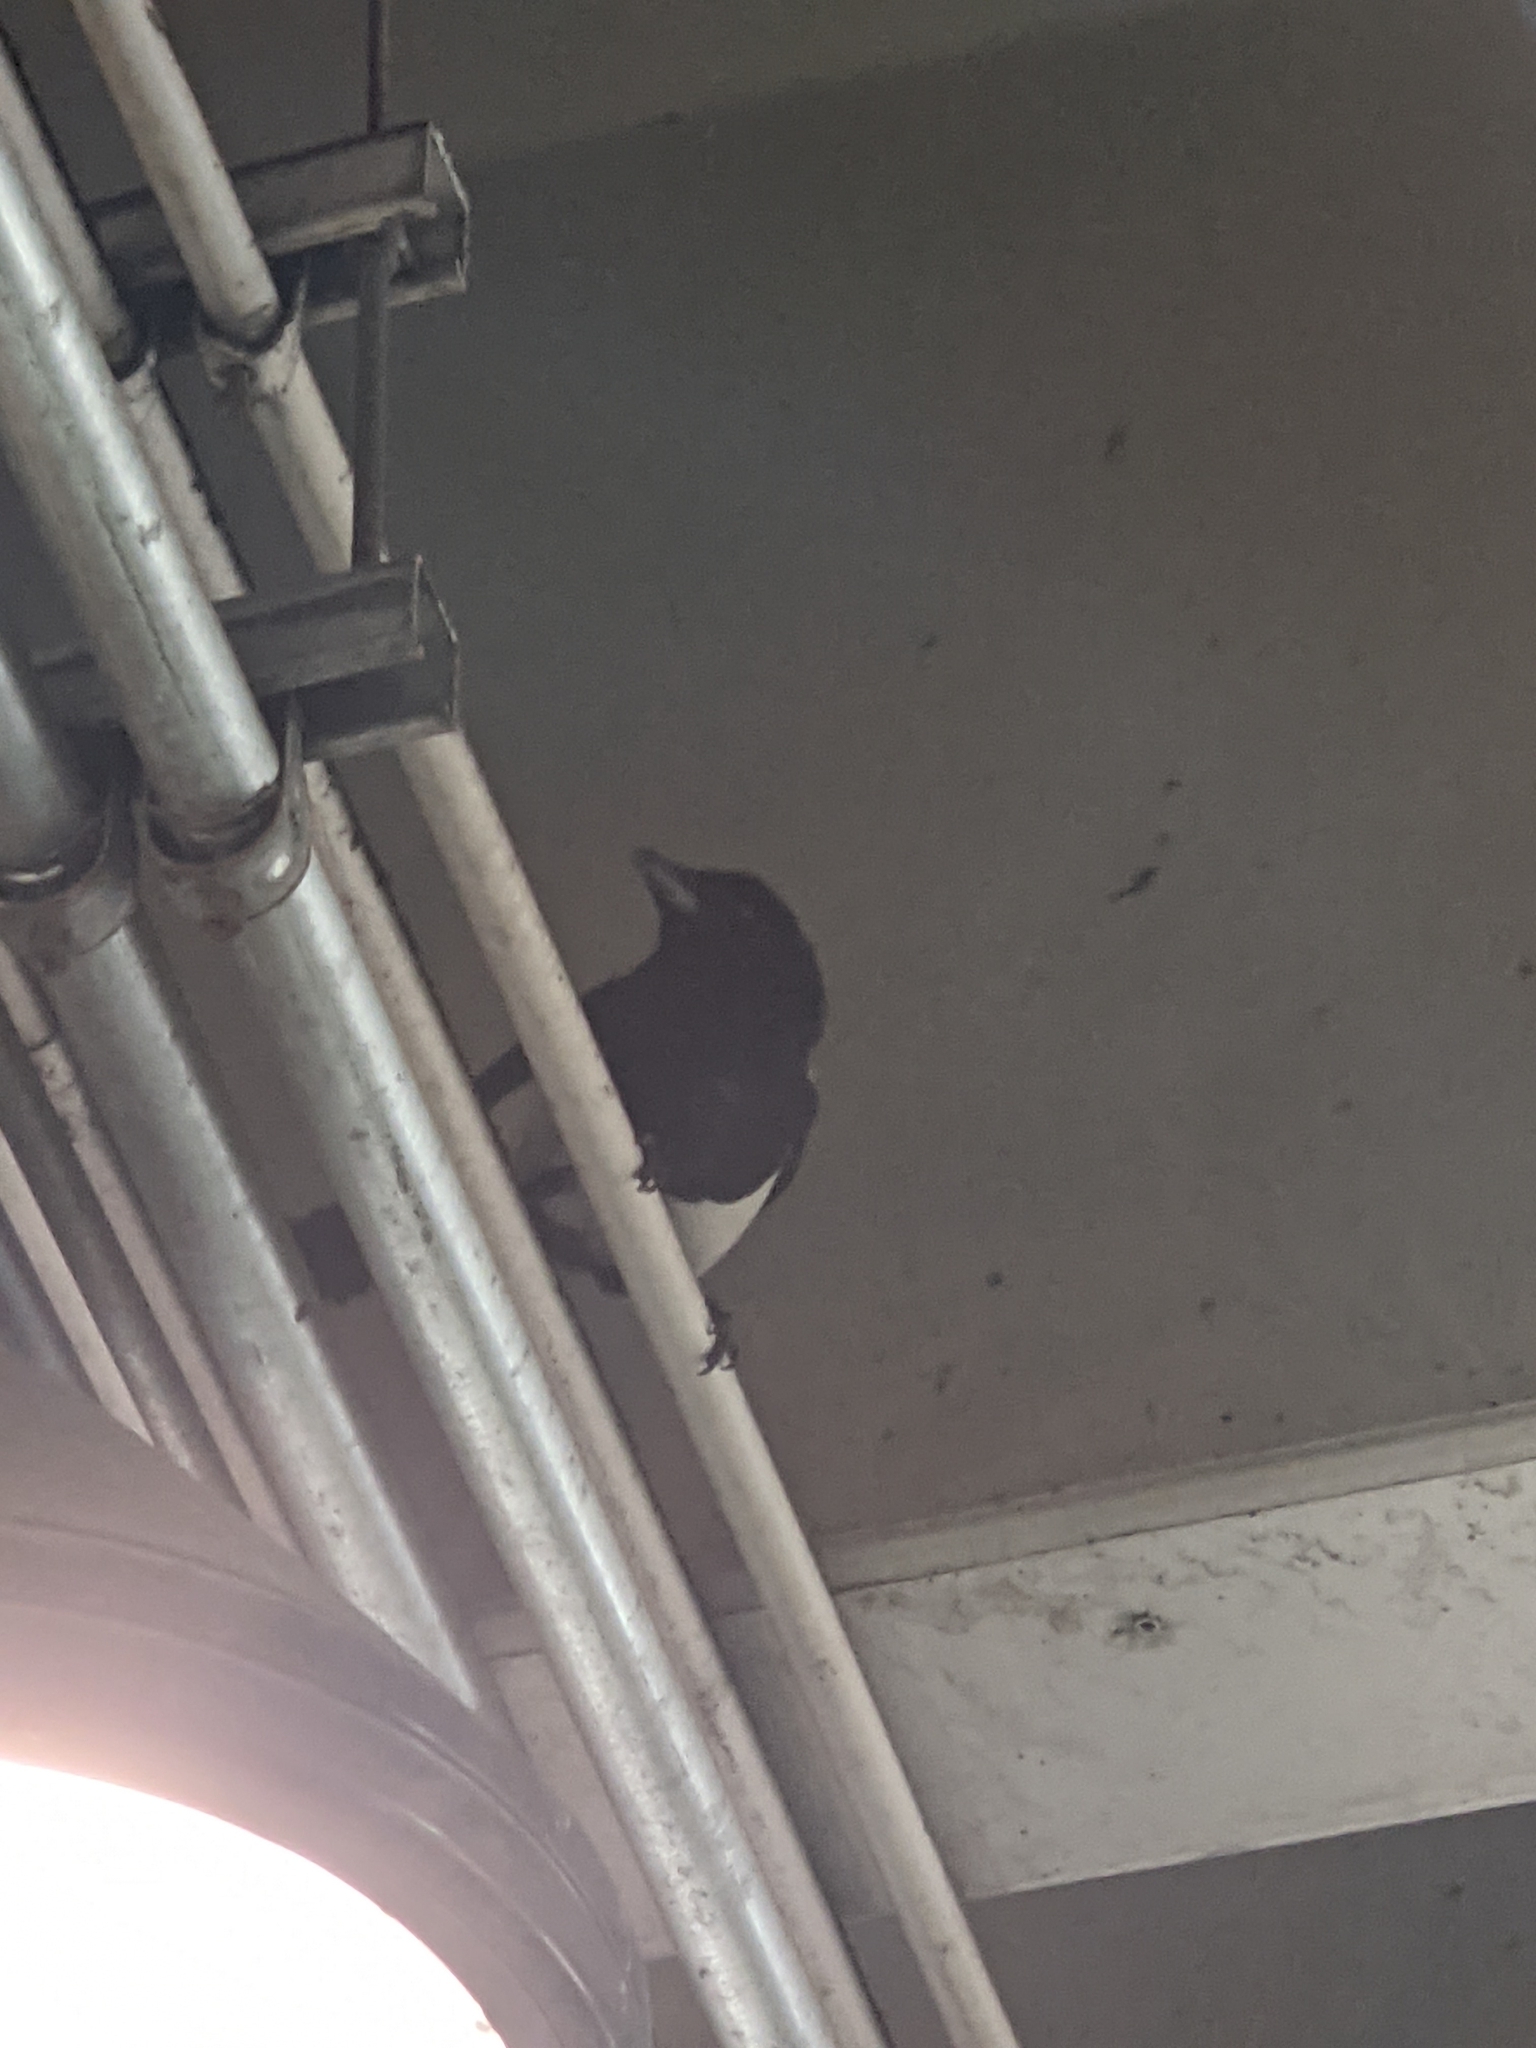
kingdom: Animalia
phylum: Chordata
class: Aves
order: Passeriformes
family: Corvidae
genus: Pica
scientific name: Pica hudsonia
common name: Black-billed magpie
